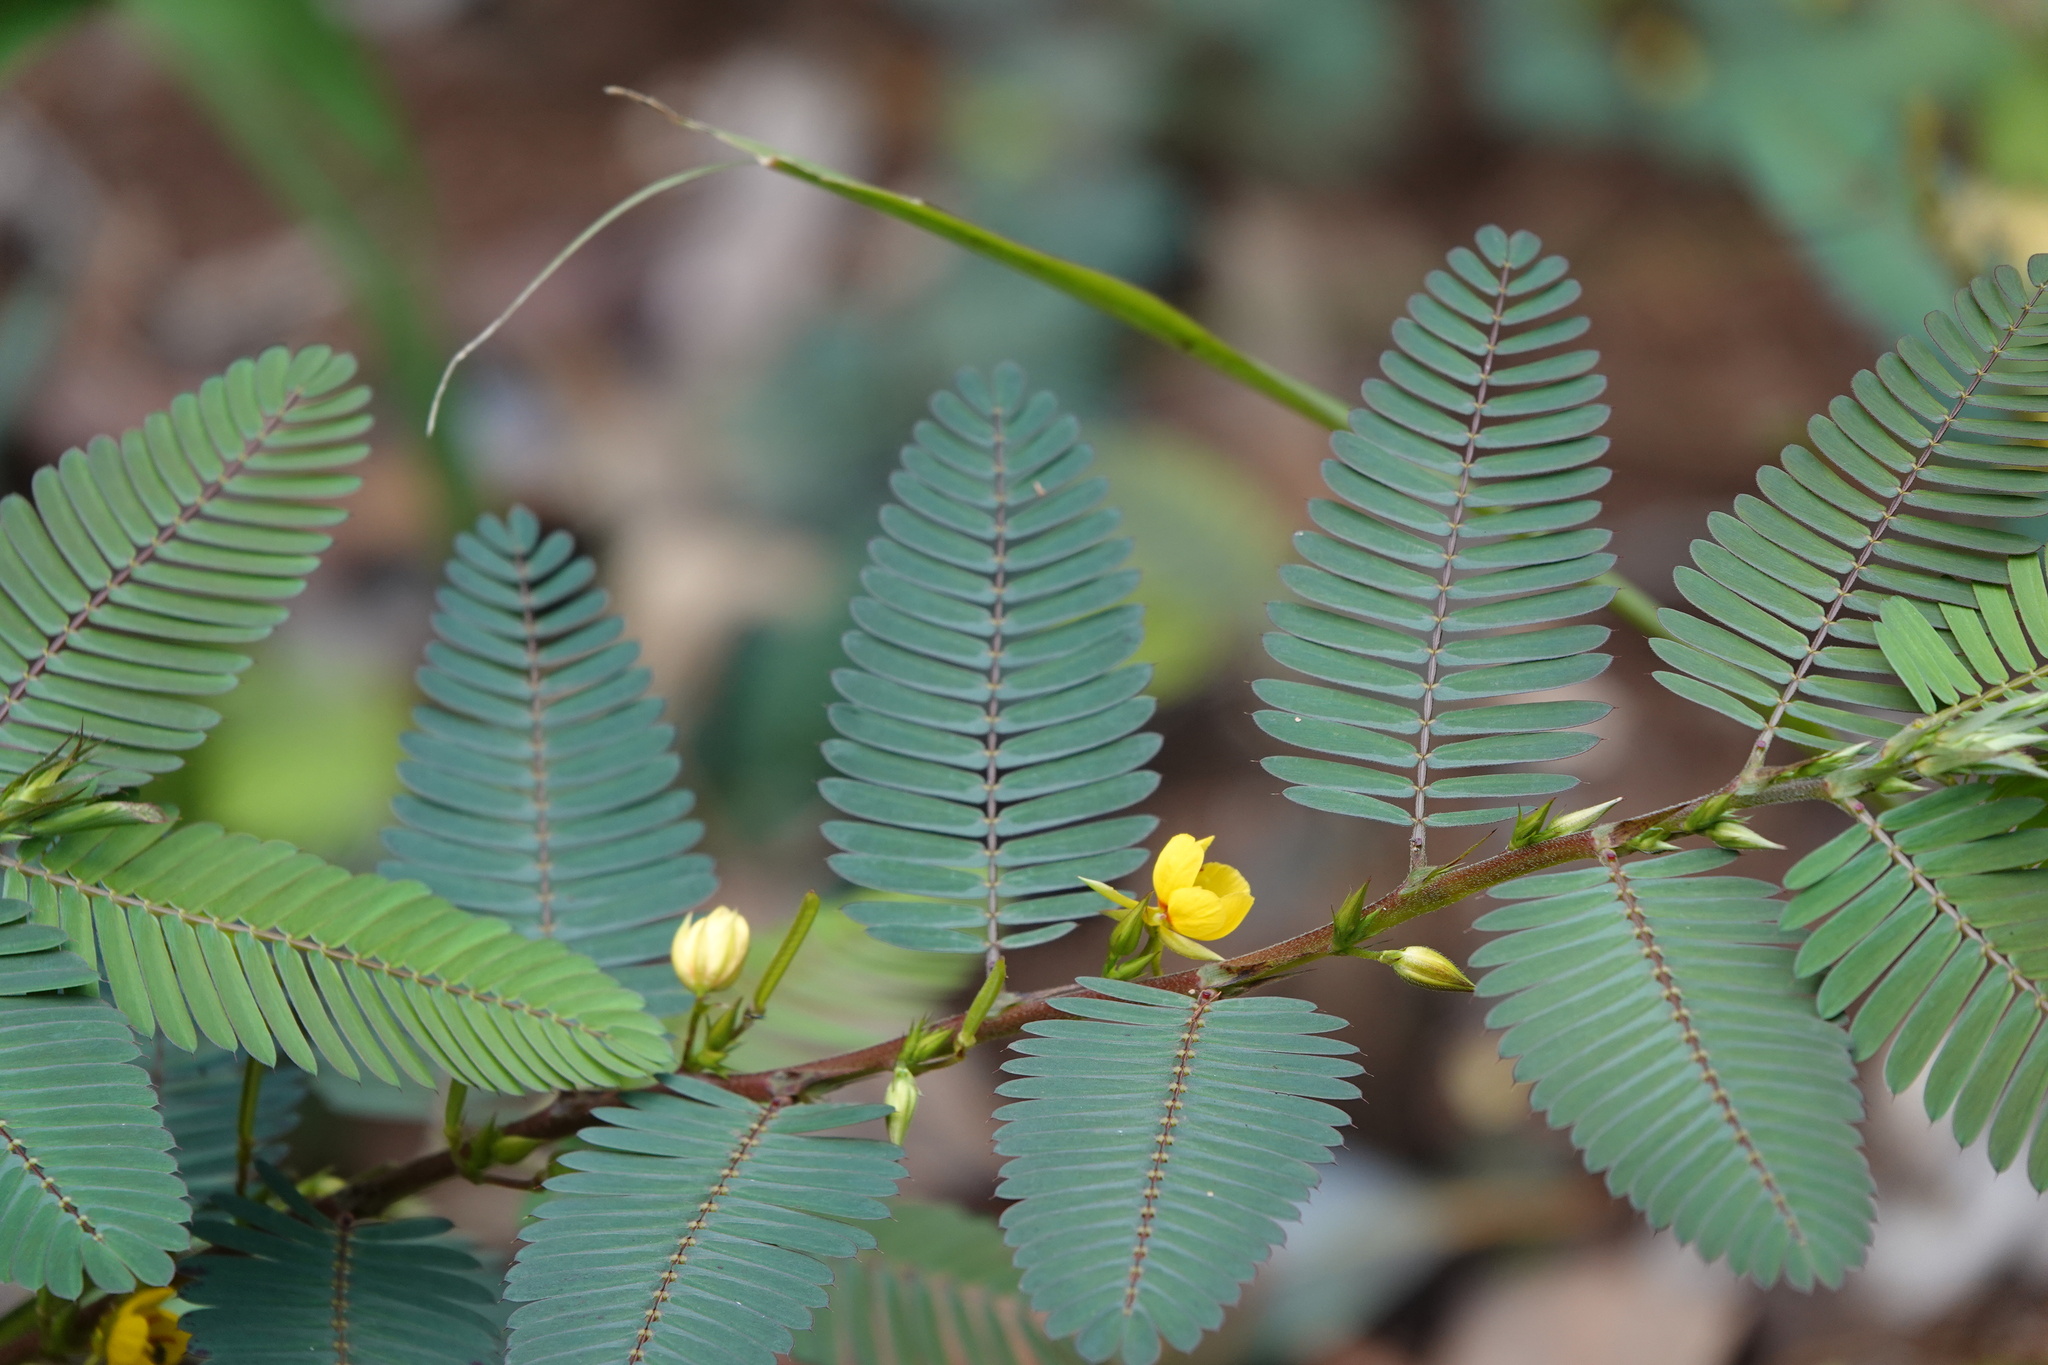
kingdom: Plantae
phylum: Tracheophyta
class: Magnoliopsida
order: Fabales
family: Fabaceae
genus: Chamaecrista
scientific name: Chamaecrista nictitans
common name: Sensitive cassia
